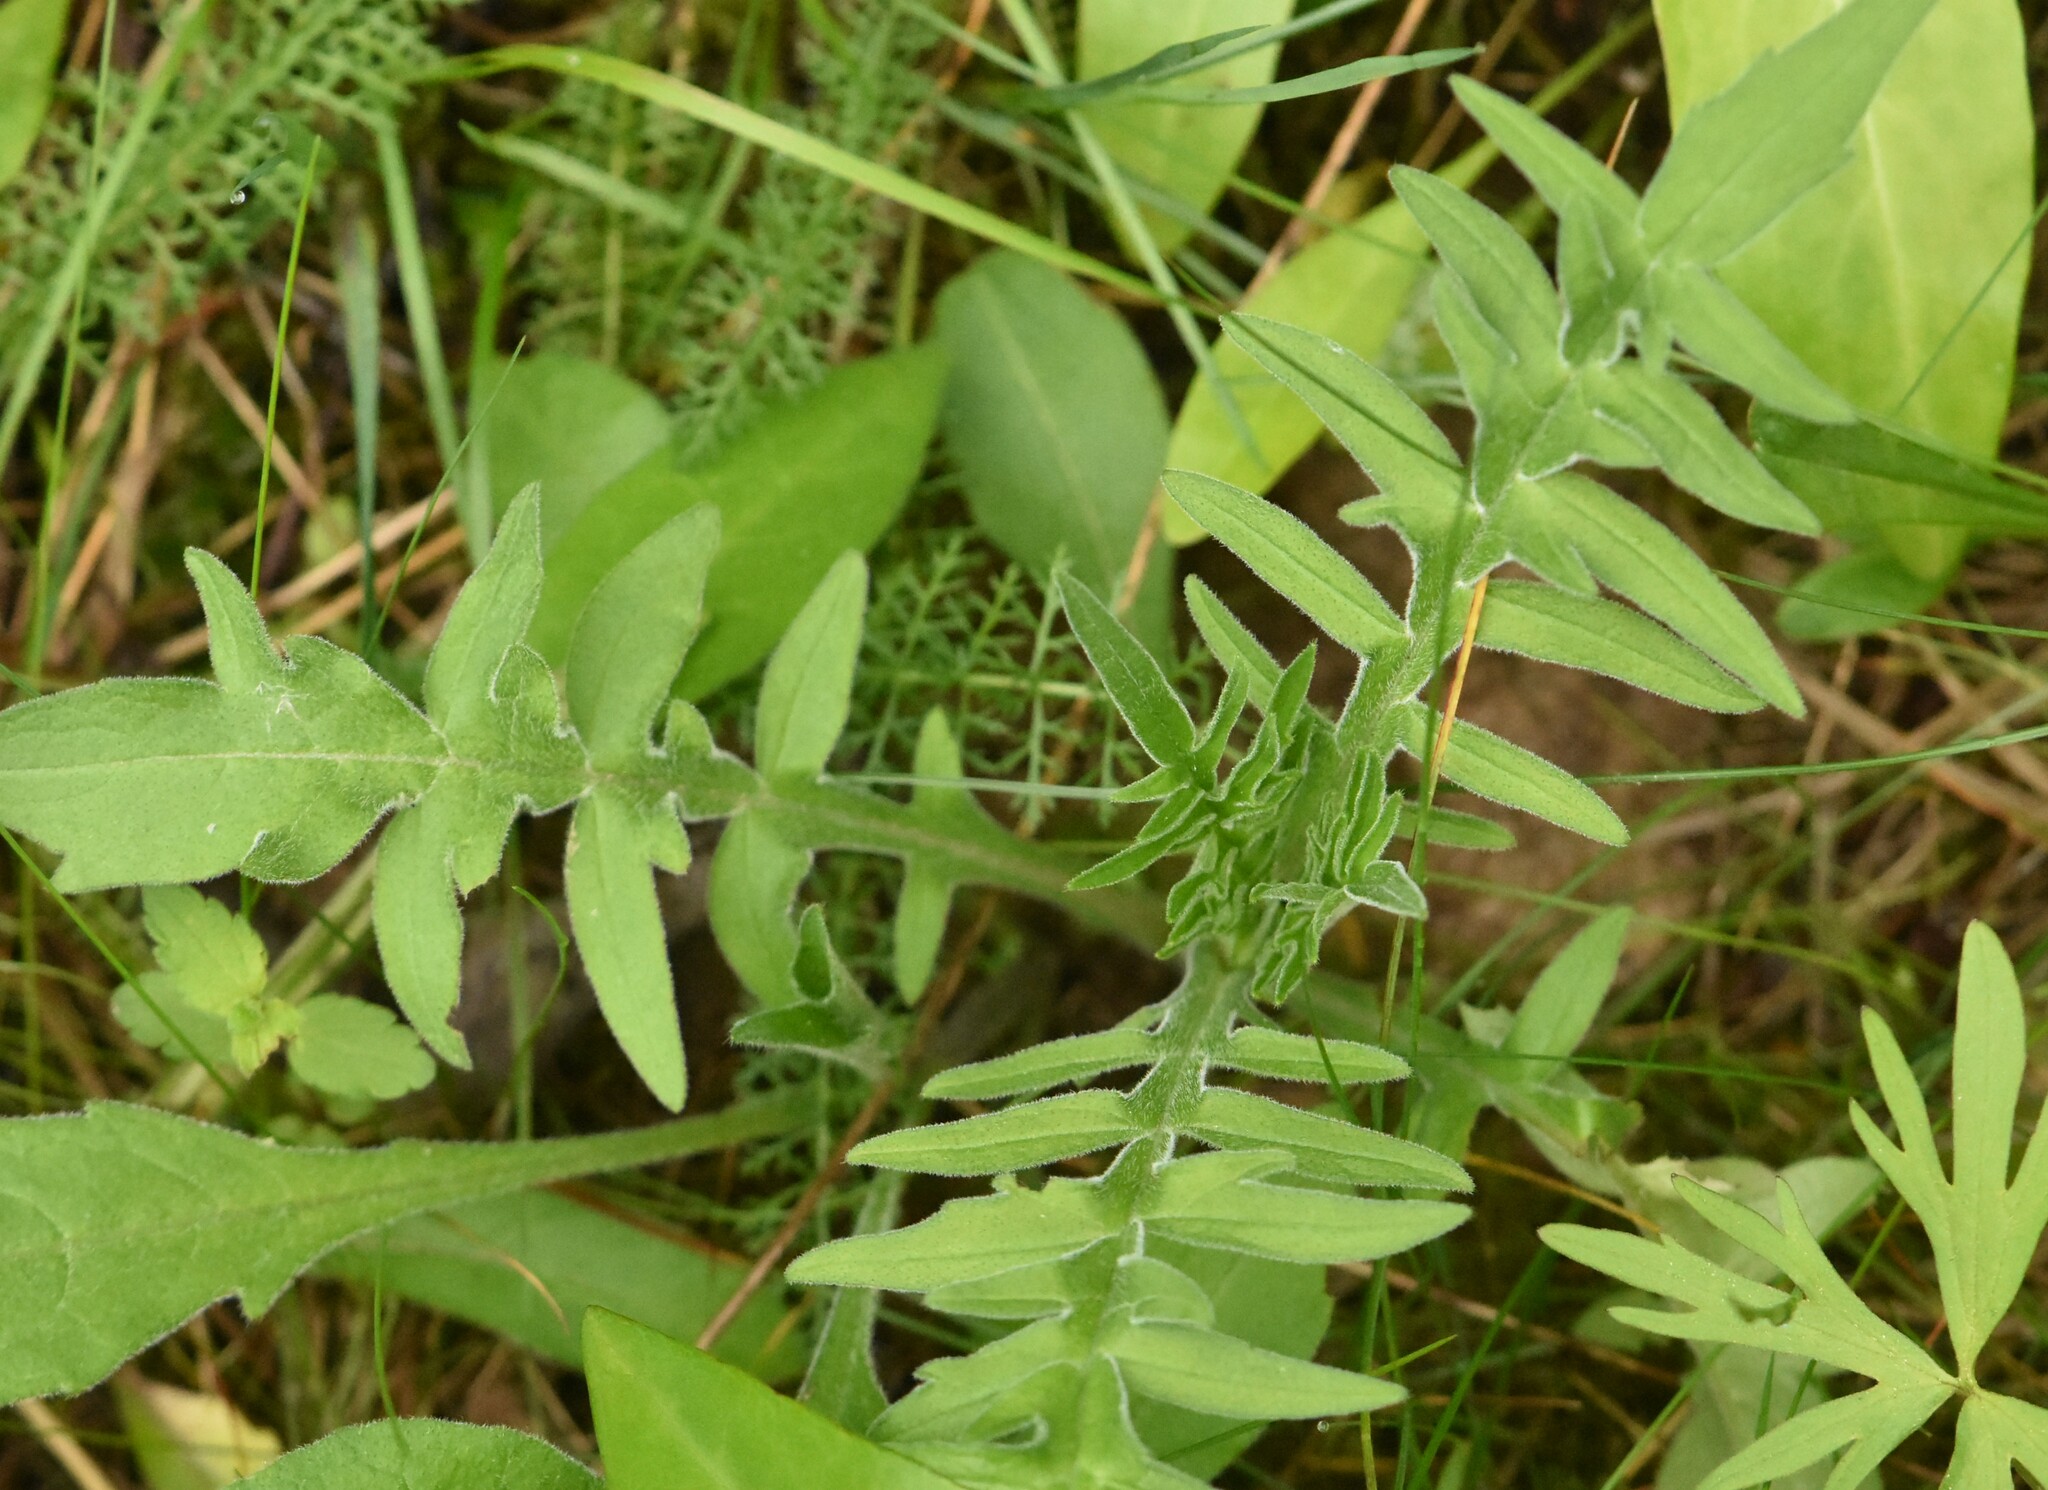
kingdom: Plantae
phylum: Tracheophyta
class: Magnoliopsida
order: Asterales
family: Asteraceae
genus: Centaurea
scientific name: Centaurea scabiosa
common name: Greater knapweed
